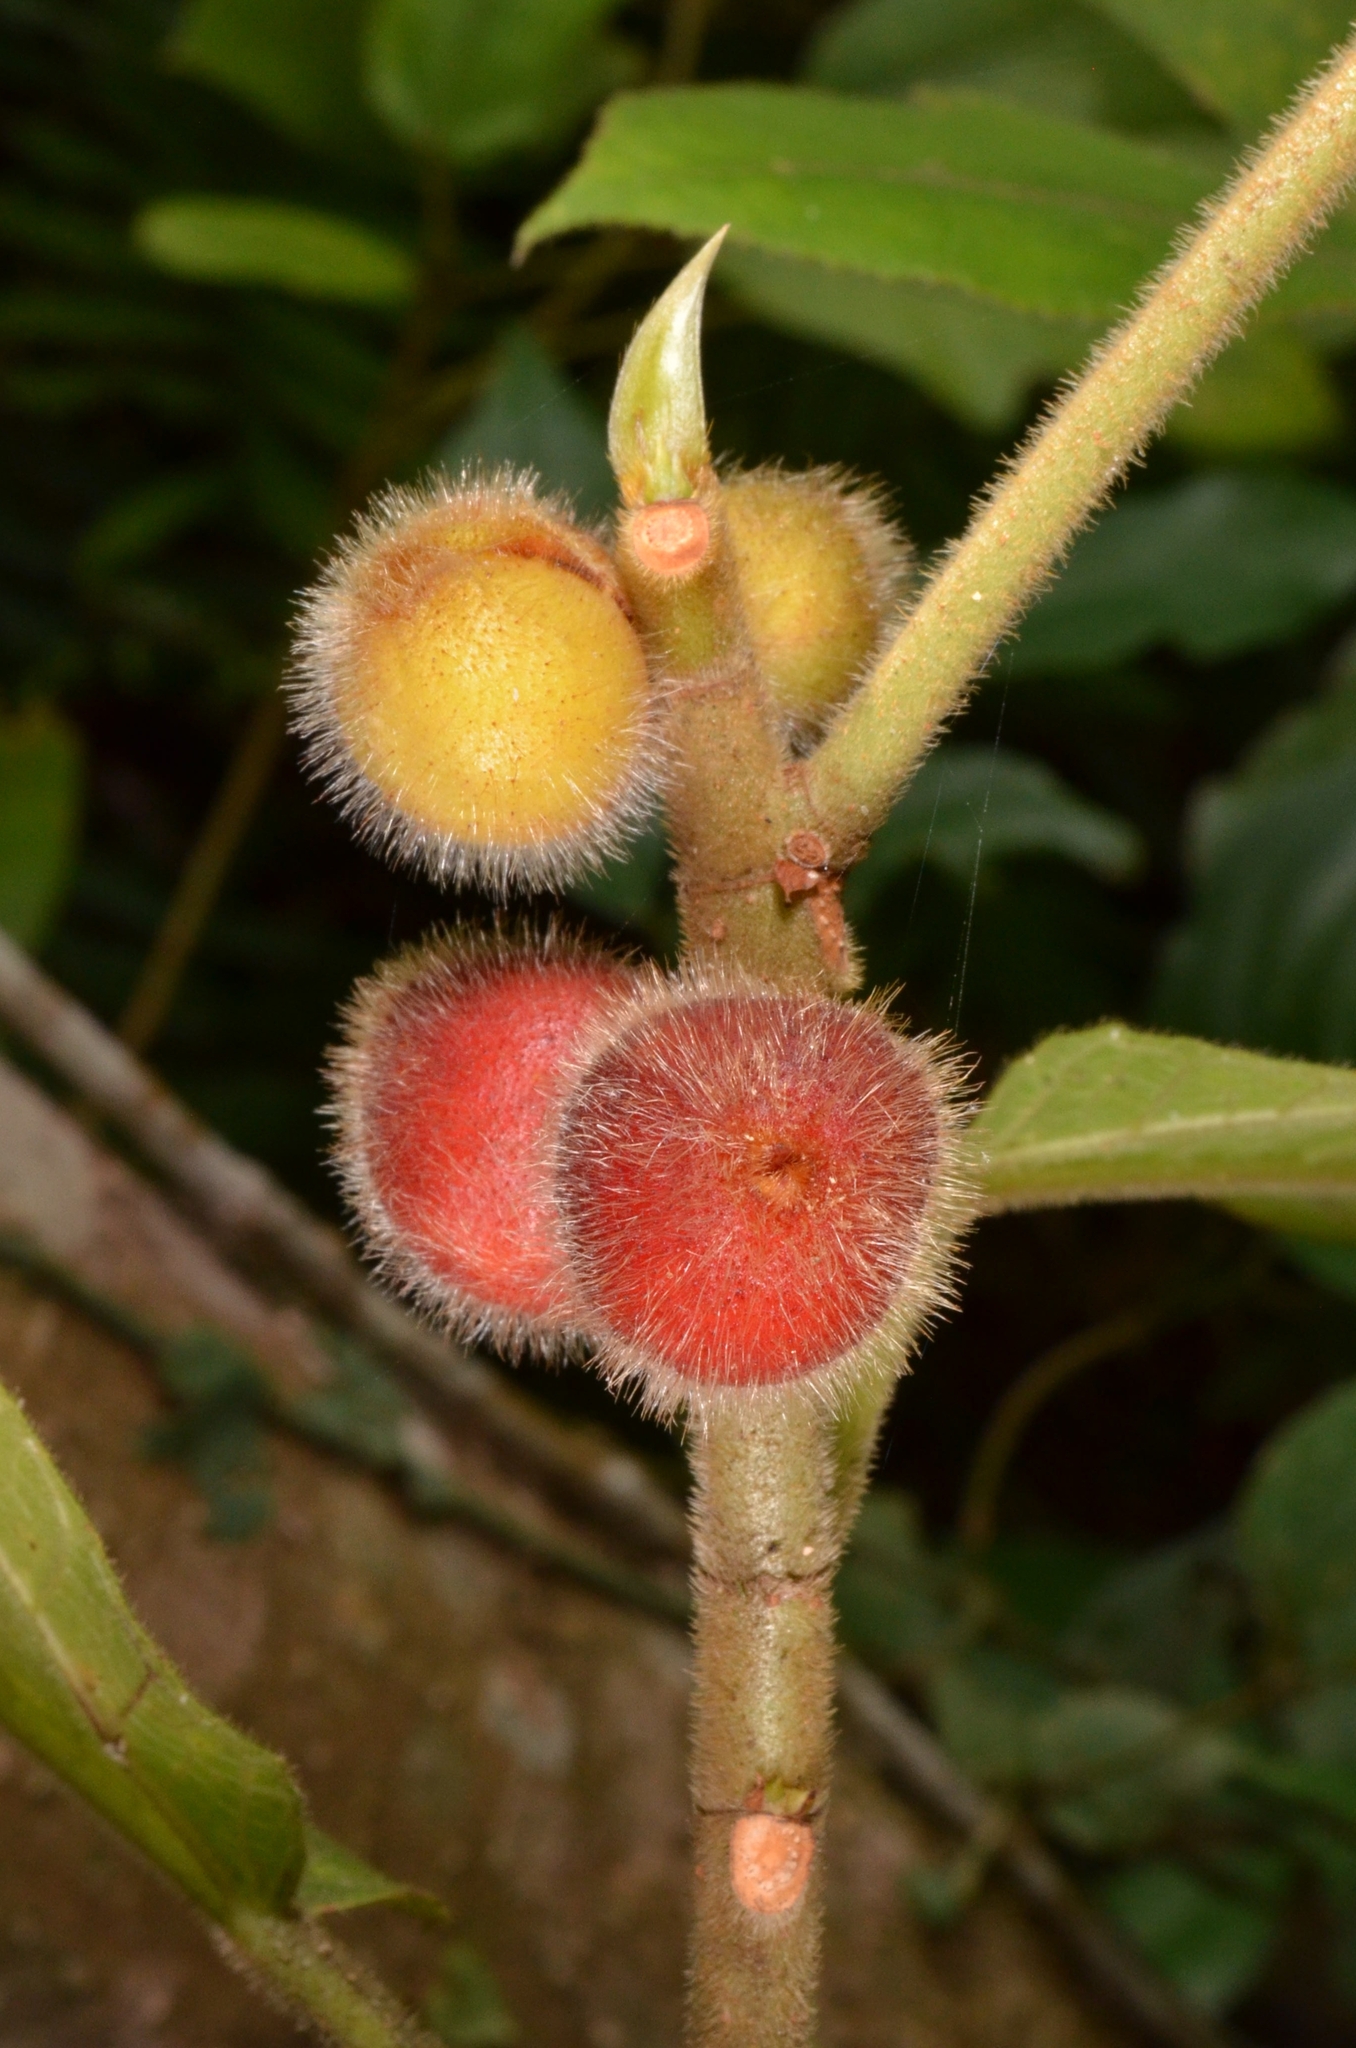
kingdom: Plantae
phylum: Tracheophyta
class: Magnoliopsida
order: Rosales
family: Moraceae
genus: Ficus
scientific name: Ficus simplicissima
